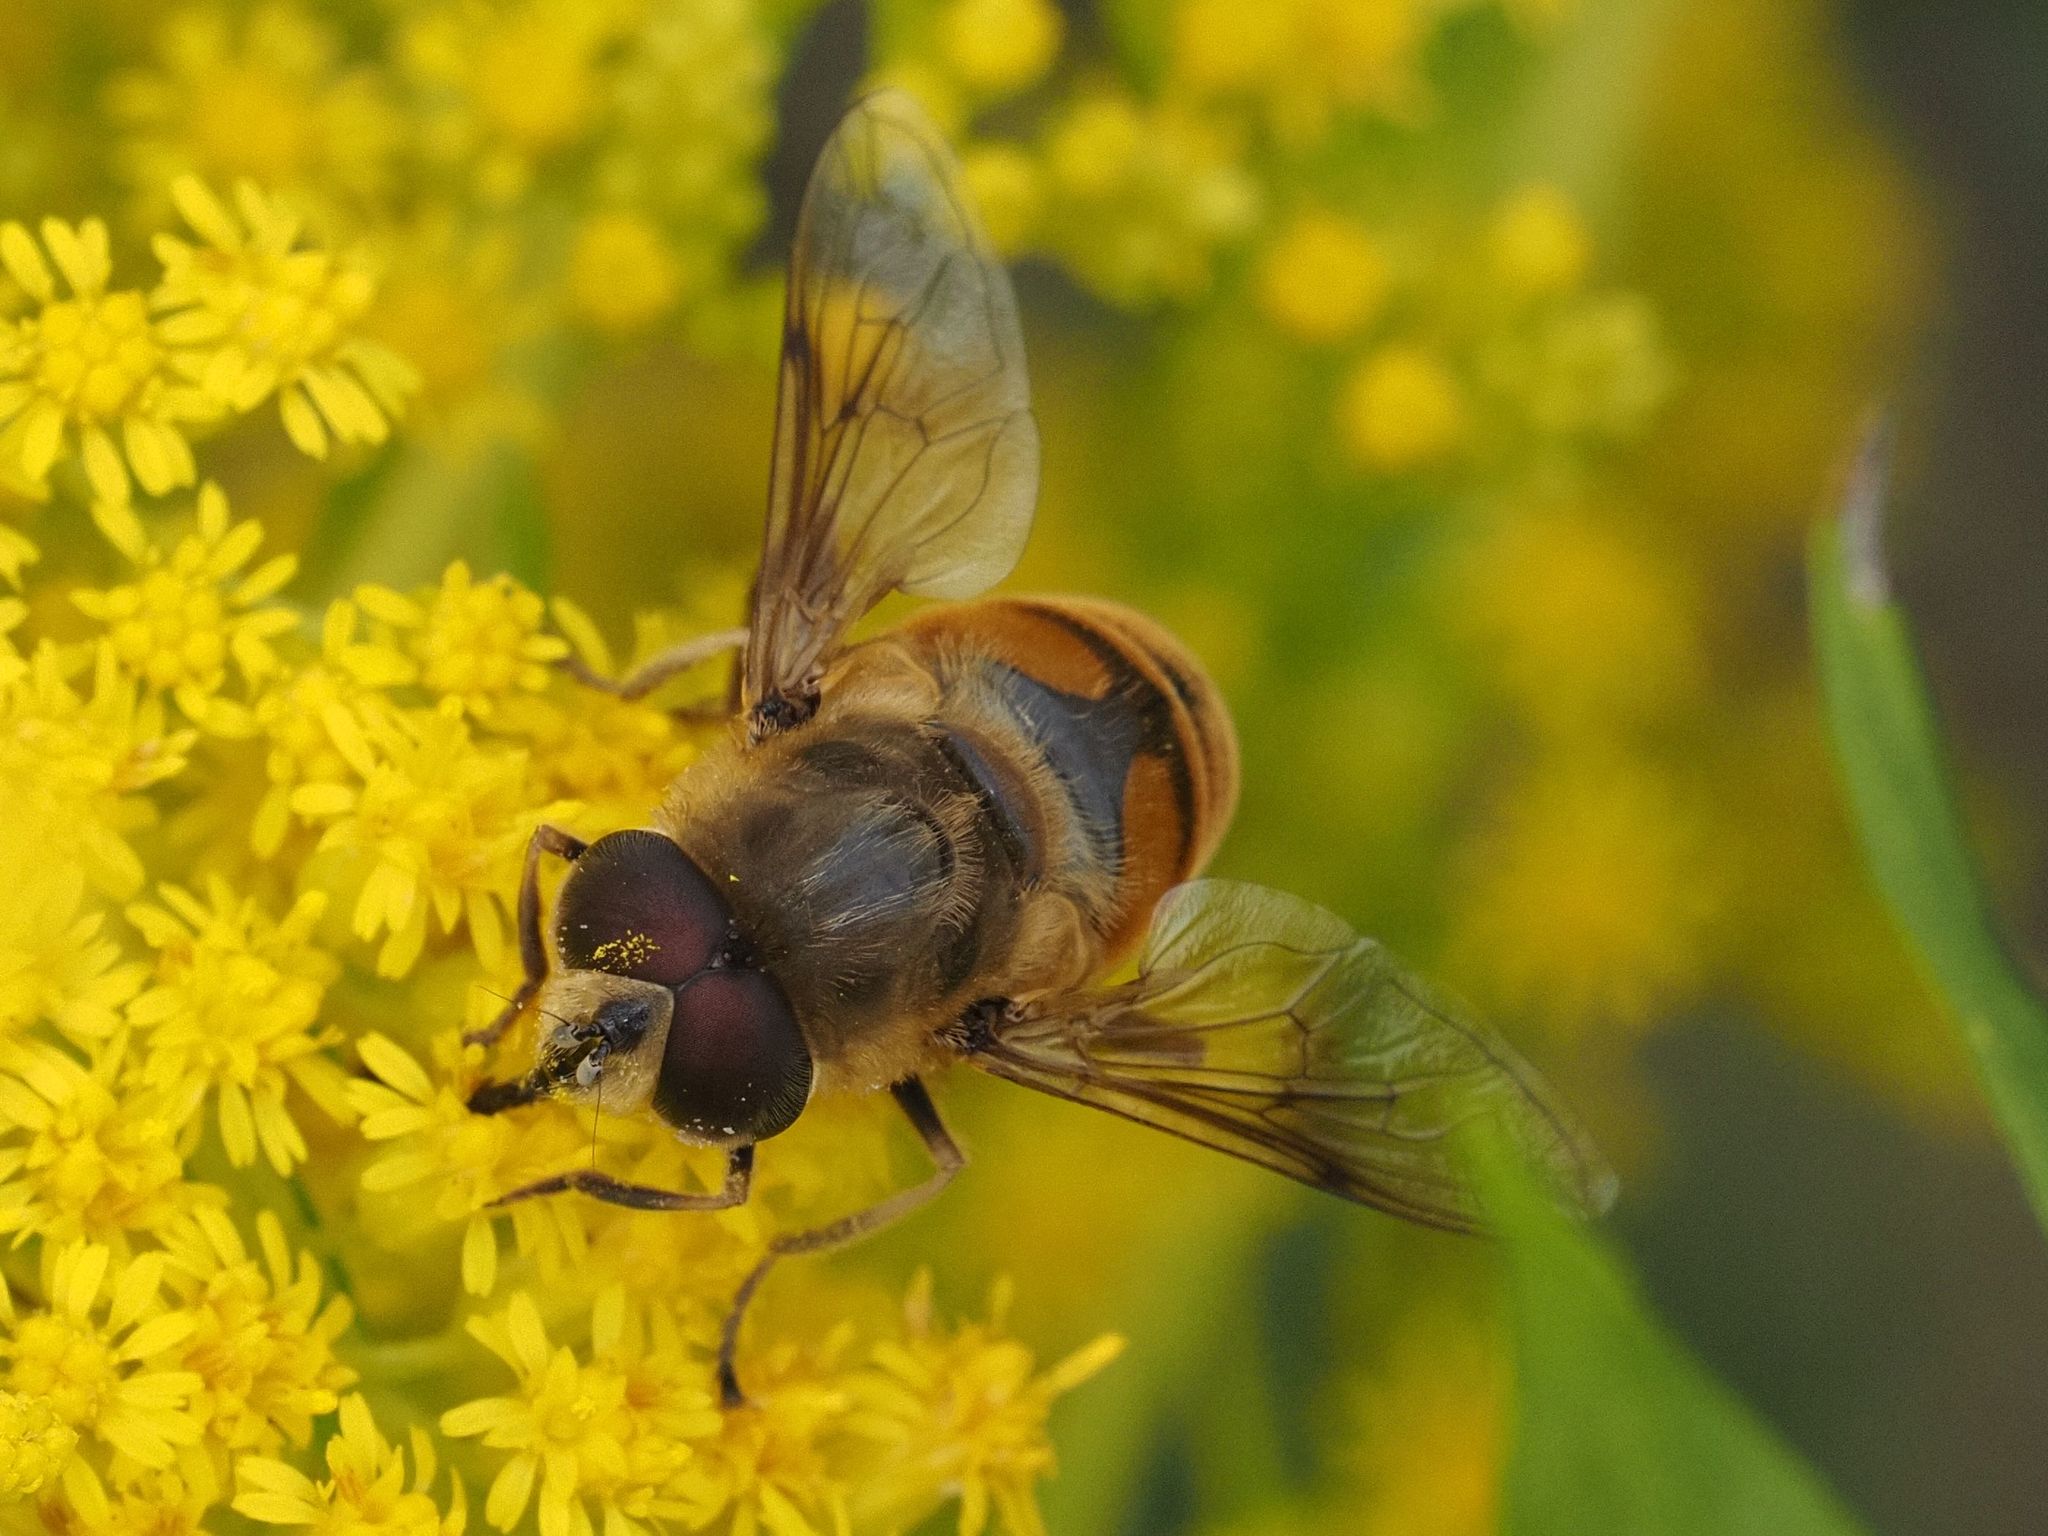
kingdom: Animalia
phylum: Arthropoda
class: Insecta
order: Diptera
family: Syrphidae
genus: Eristalis
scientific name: Eristalis tenax
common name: Drone fly
